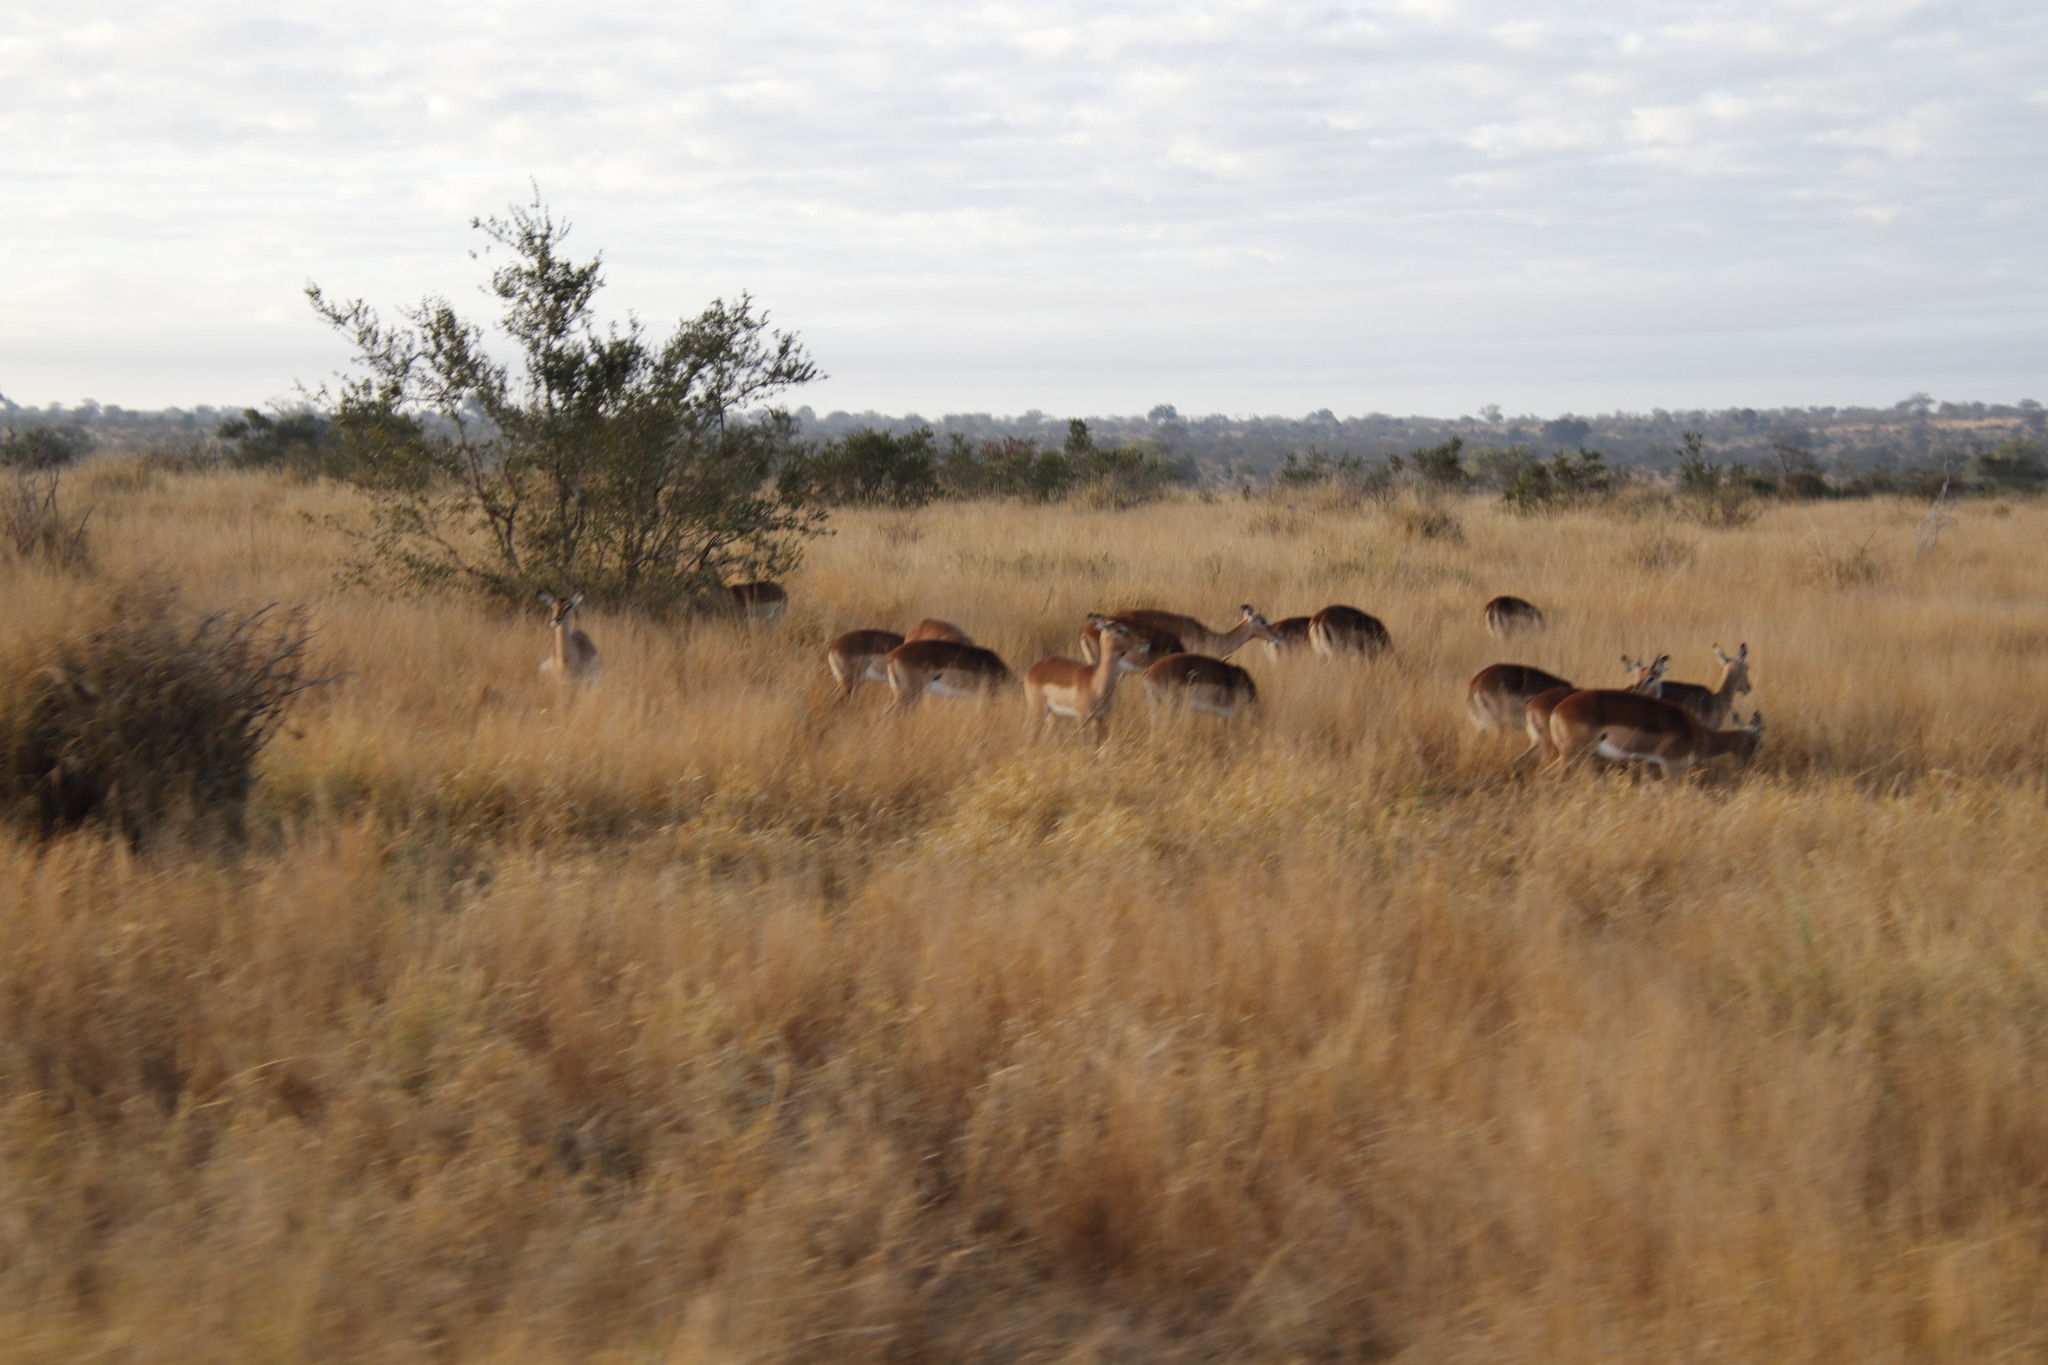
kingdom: Animalia
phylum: Chordata
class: Mammalia
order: Artiodactyla
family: Bovidae
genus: Aepyceros
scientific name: Aepyceros melampus
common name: Impala
